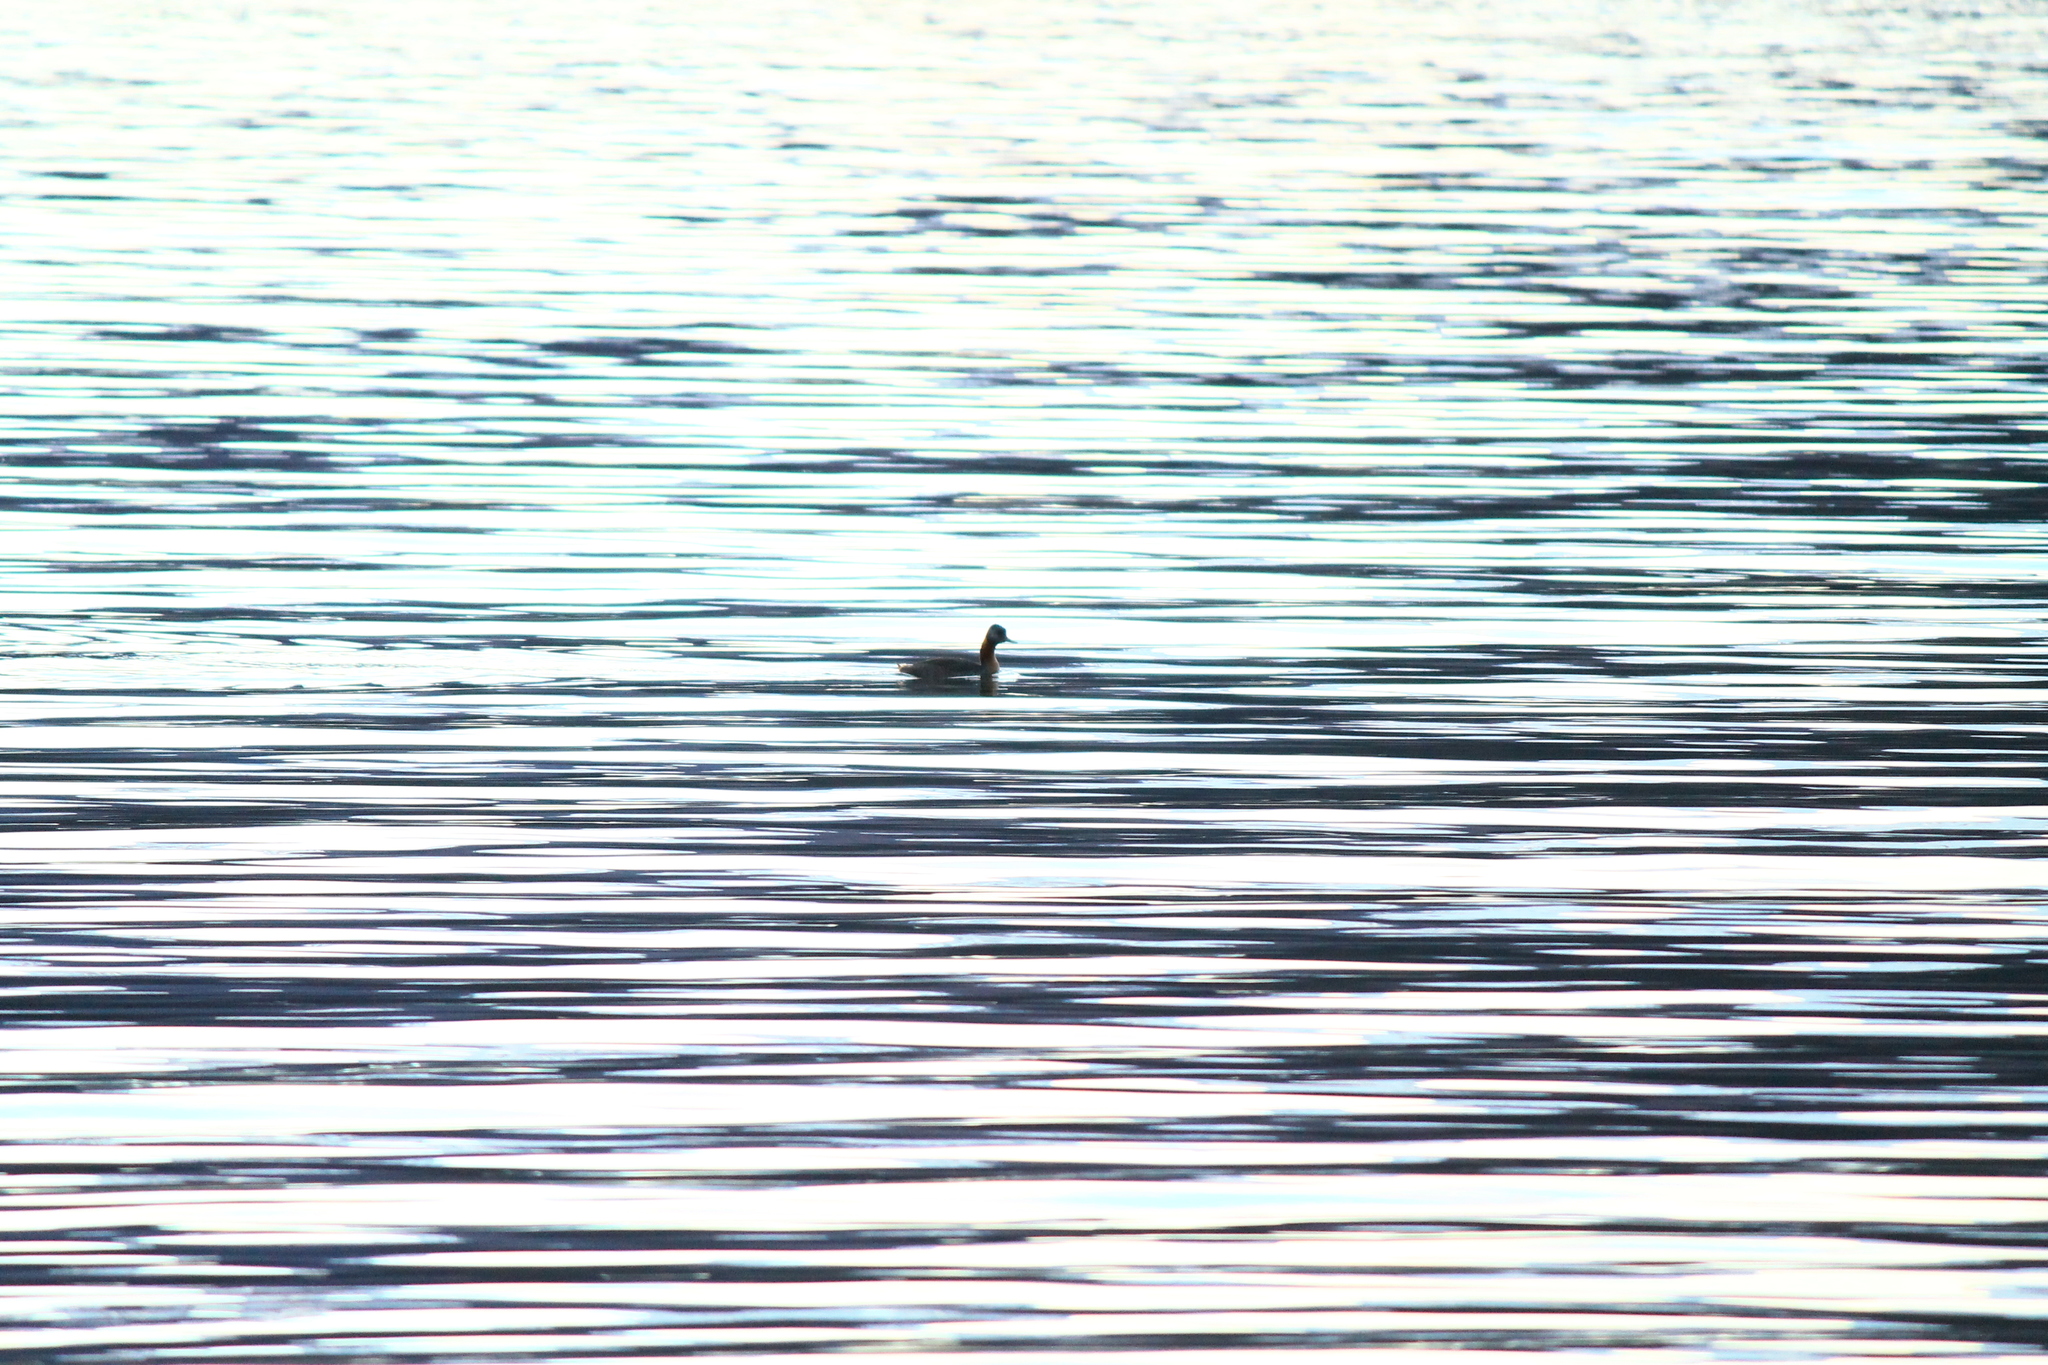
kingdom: Animalia
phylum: Chordata
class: Aves
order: Podicipediformes
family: Podicipedidae
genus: Podiceps
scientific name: Podiceps major
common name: Great grebe
